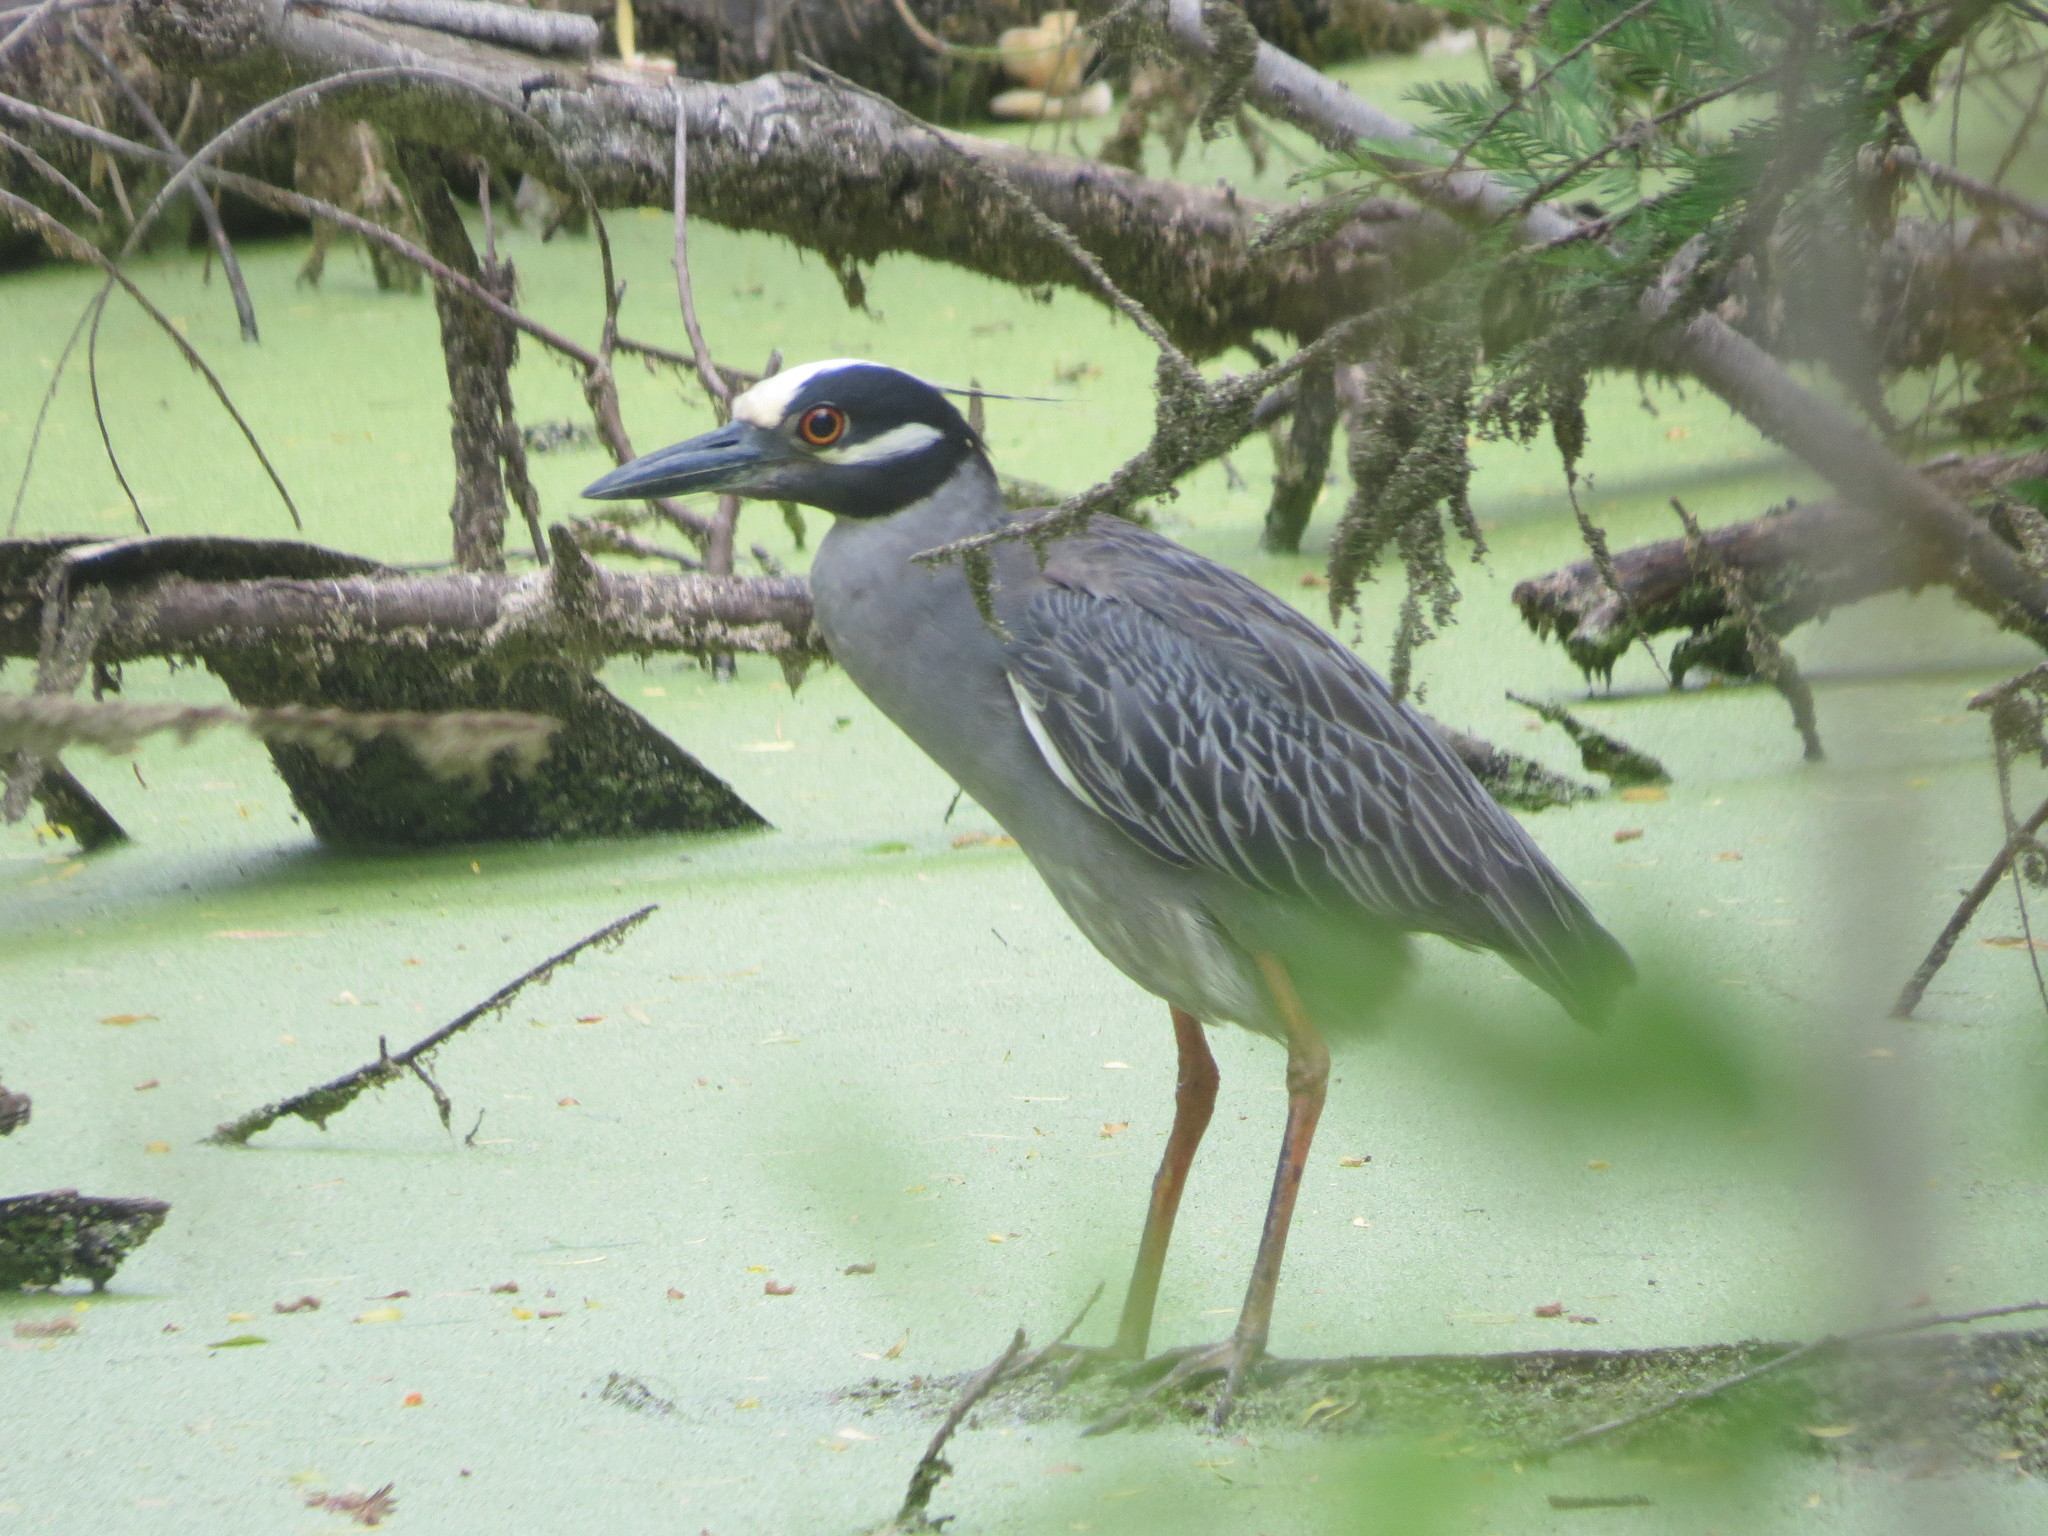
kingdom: Animalia
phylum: Chordata
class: Aves
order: Pelecaniformes
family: Ardeidae
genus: Nyctanassa
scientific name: Nyctanassa violacea
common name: Yellow-crowned night heron
